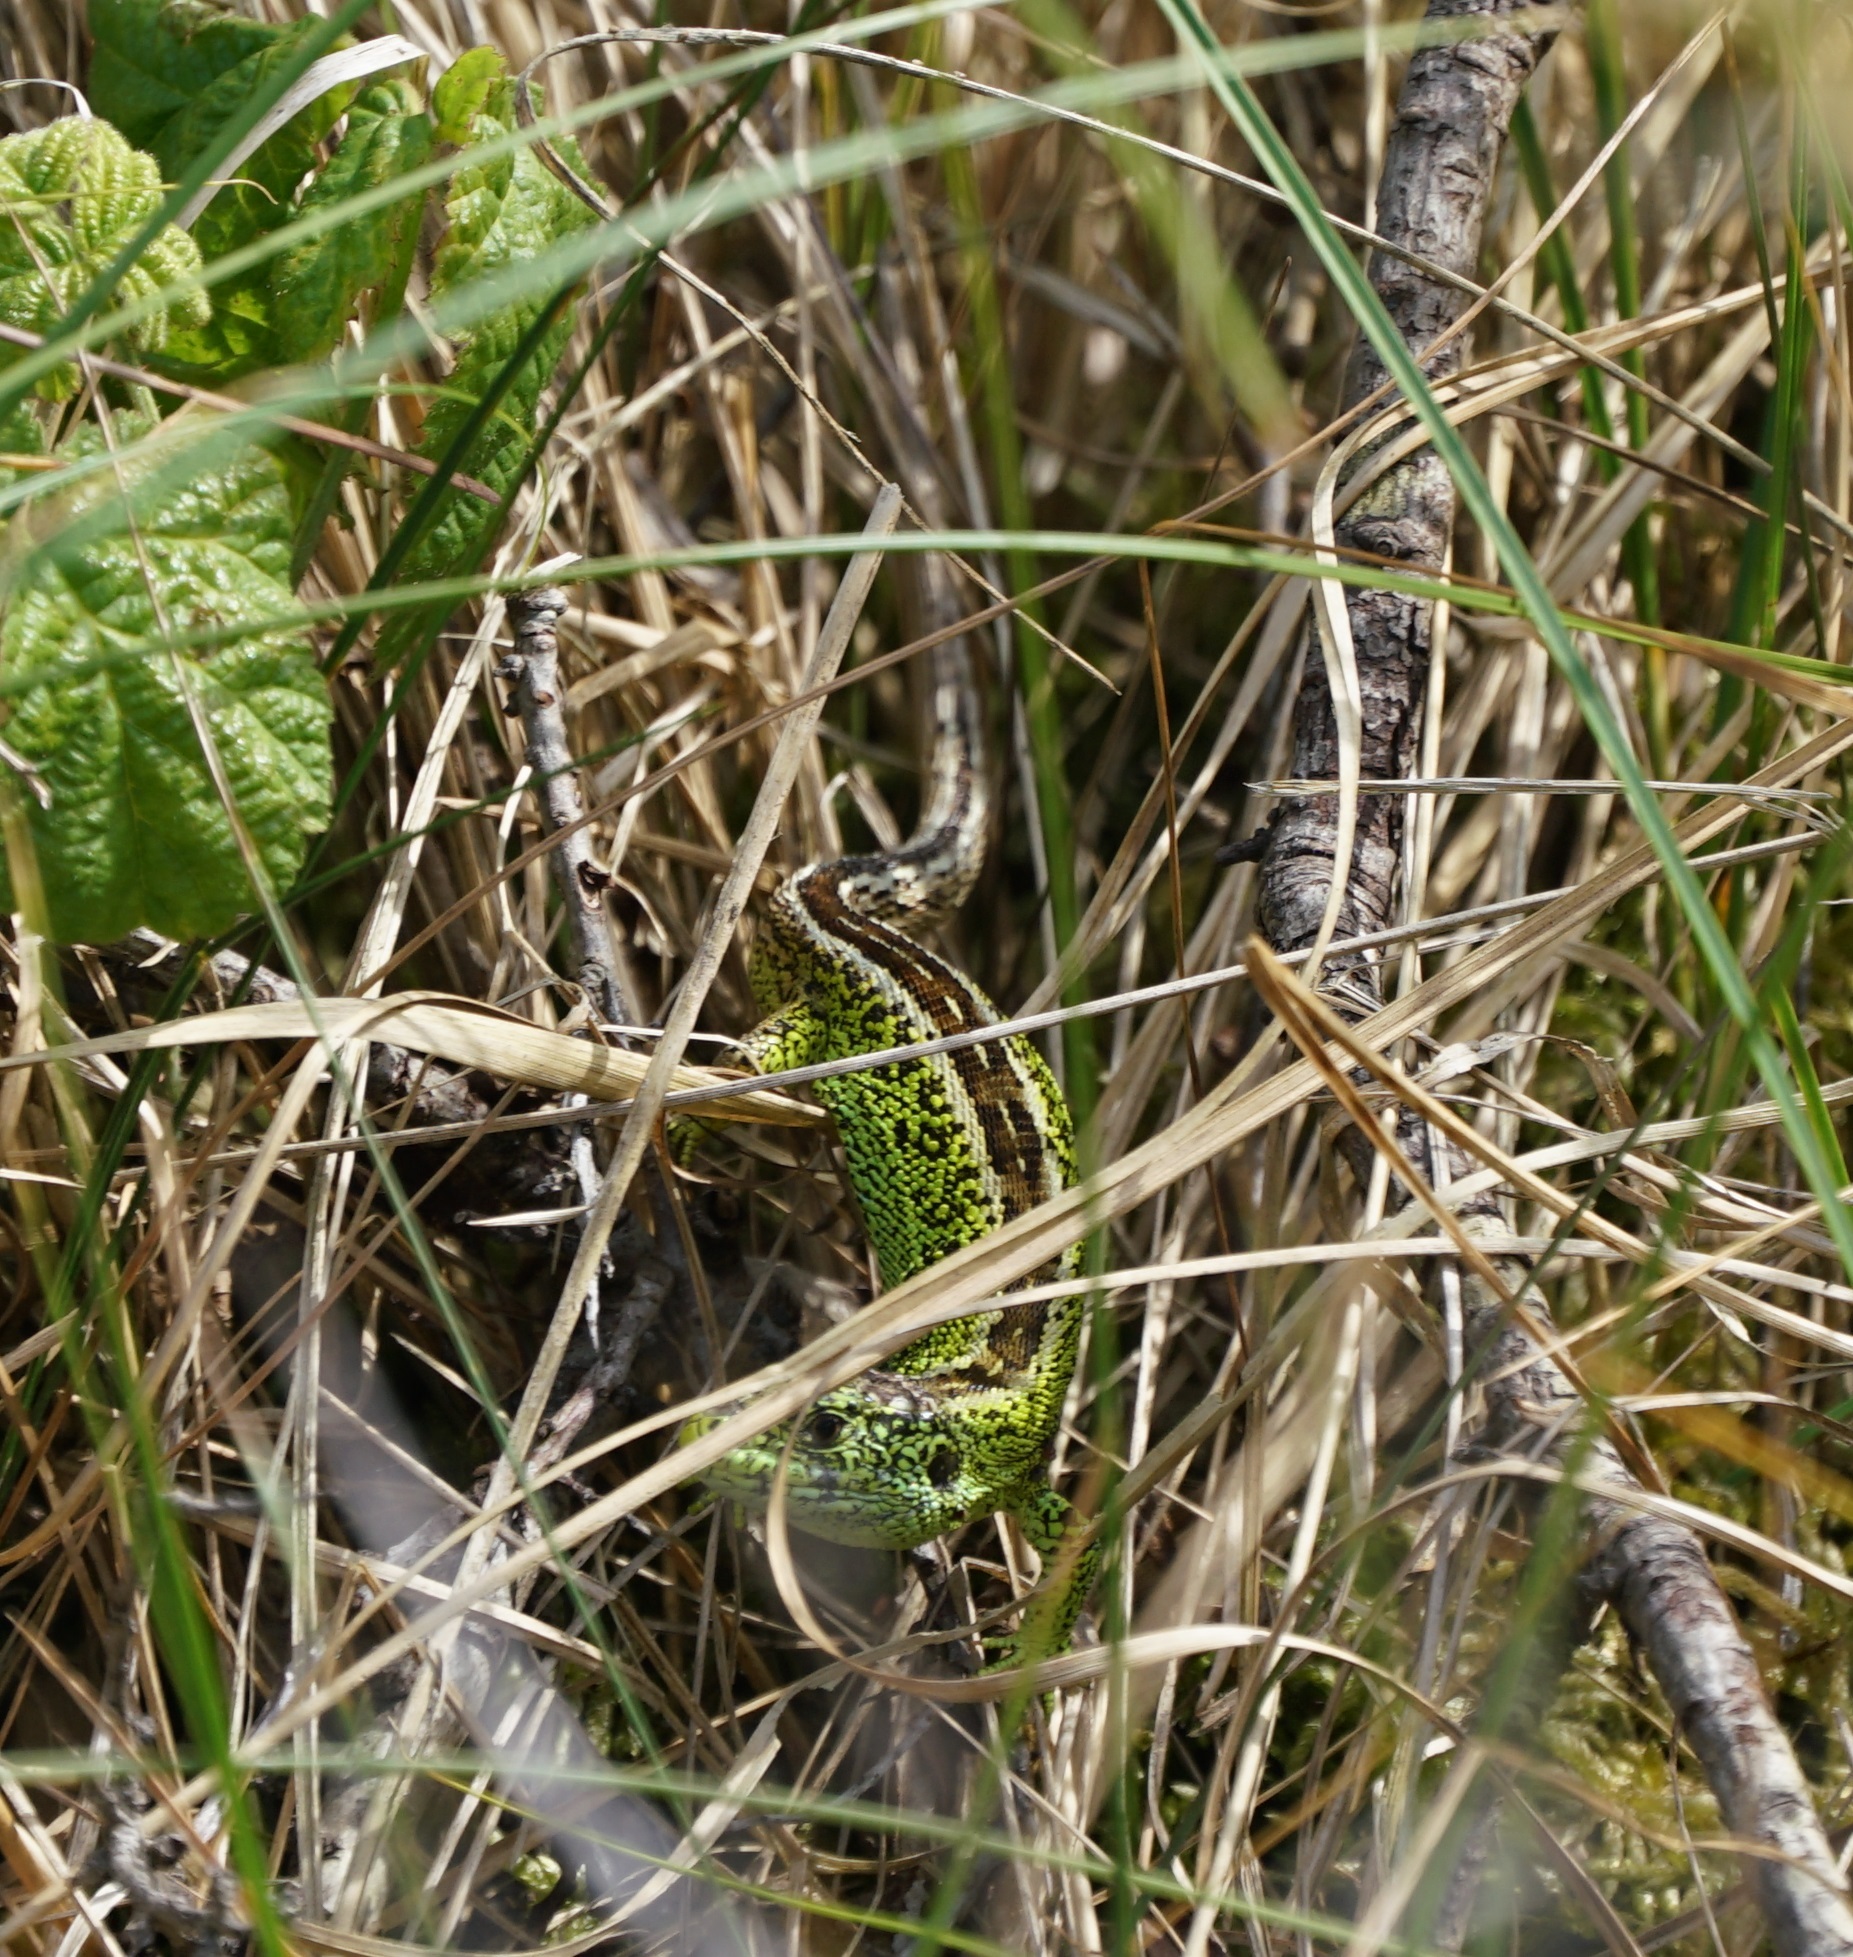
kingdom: Animalia
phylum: Chordata
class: Squamata
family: Lacertidae
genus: Lacerta
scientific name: Lacerta agilis
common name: Sand lizard
